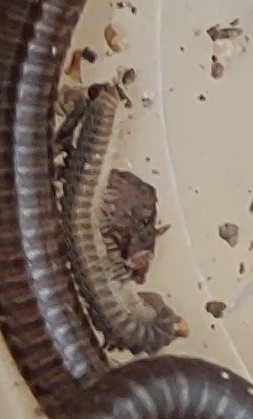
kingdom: Animalia
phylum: Arthropoda
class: Diplopoda
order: Chordeumatida
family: Striariidae
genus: Striaria
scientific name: Striaria granulosa
